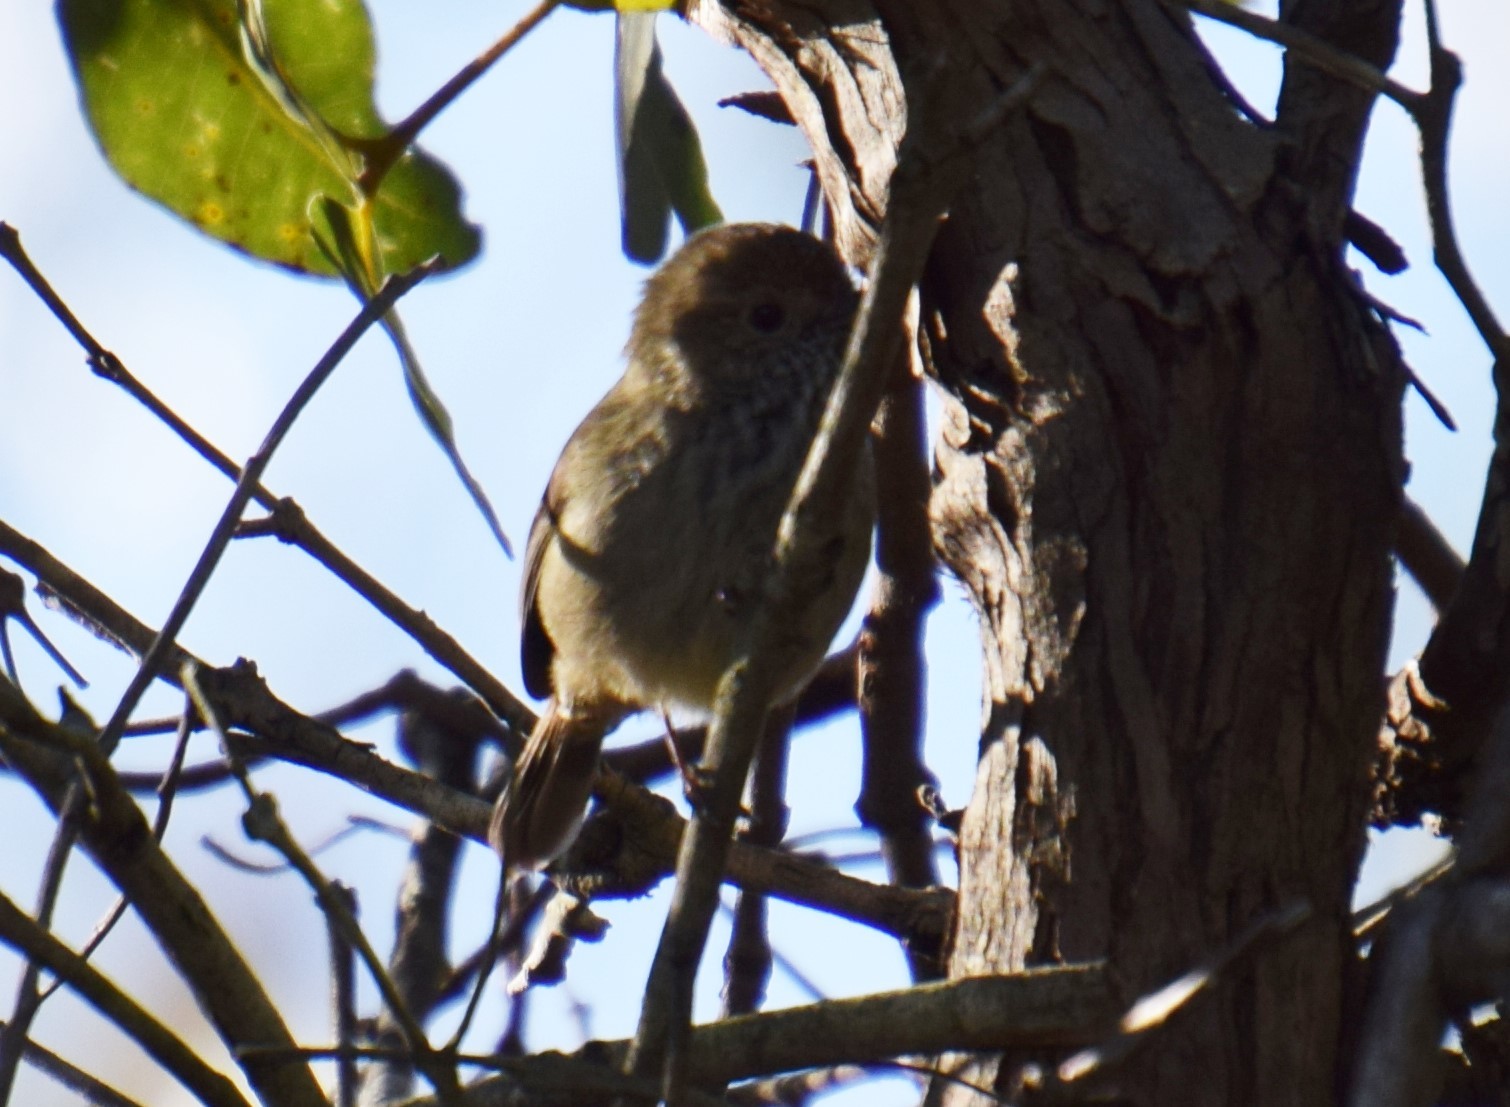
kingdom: Animalia
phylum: Chordata
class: Aves
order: Passeriformes
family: Acanthizidae
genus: Acanthiza
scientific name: Acanthiza pusilla
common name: Brown thornbill
